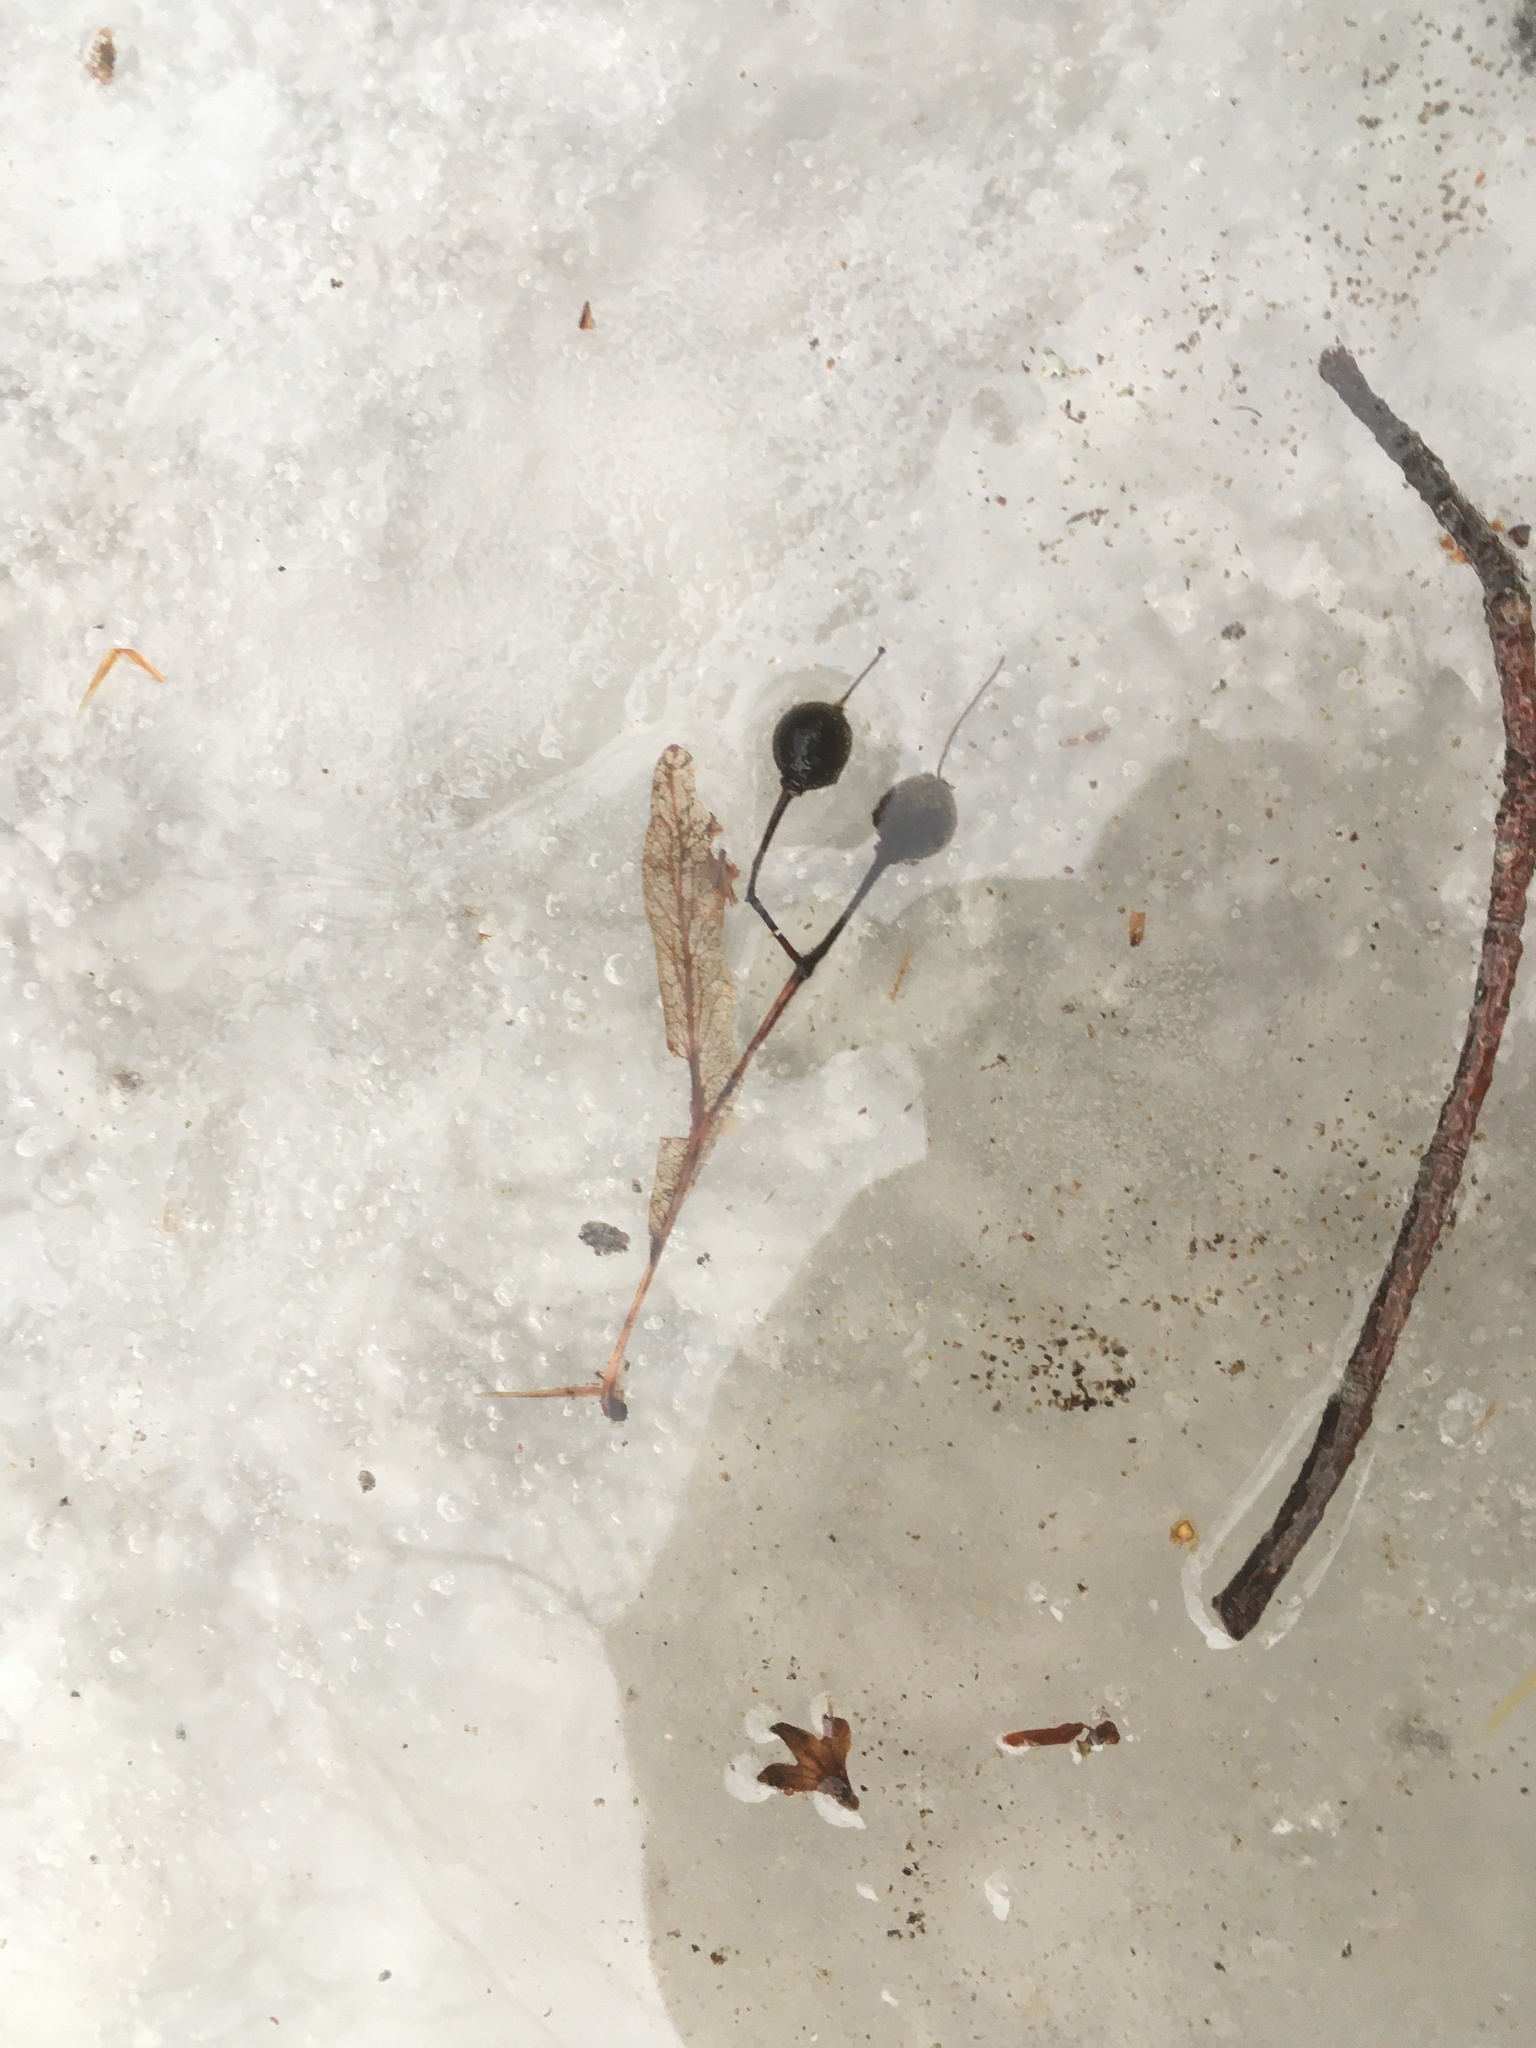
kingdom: Plantae
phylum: Tracheophyta
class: Magnoliopsida
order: Malvales
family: Malvaceae
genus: Tilia
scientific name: Tilia americana
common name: Basswood
